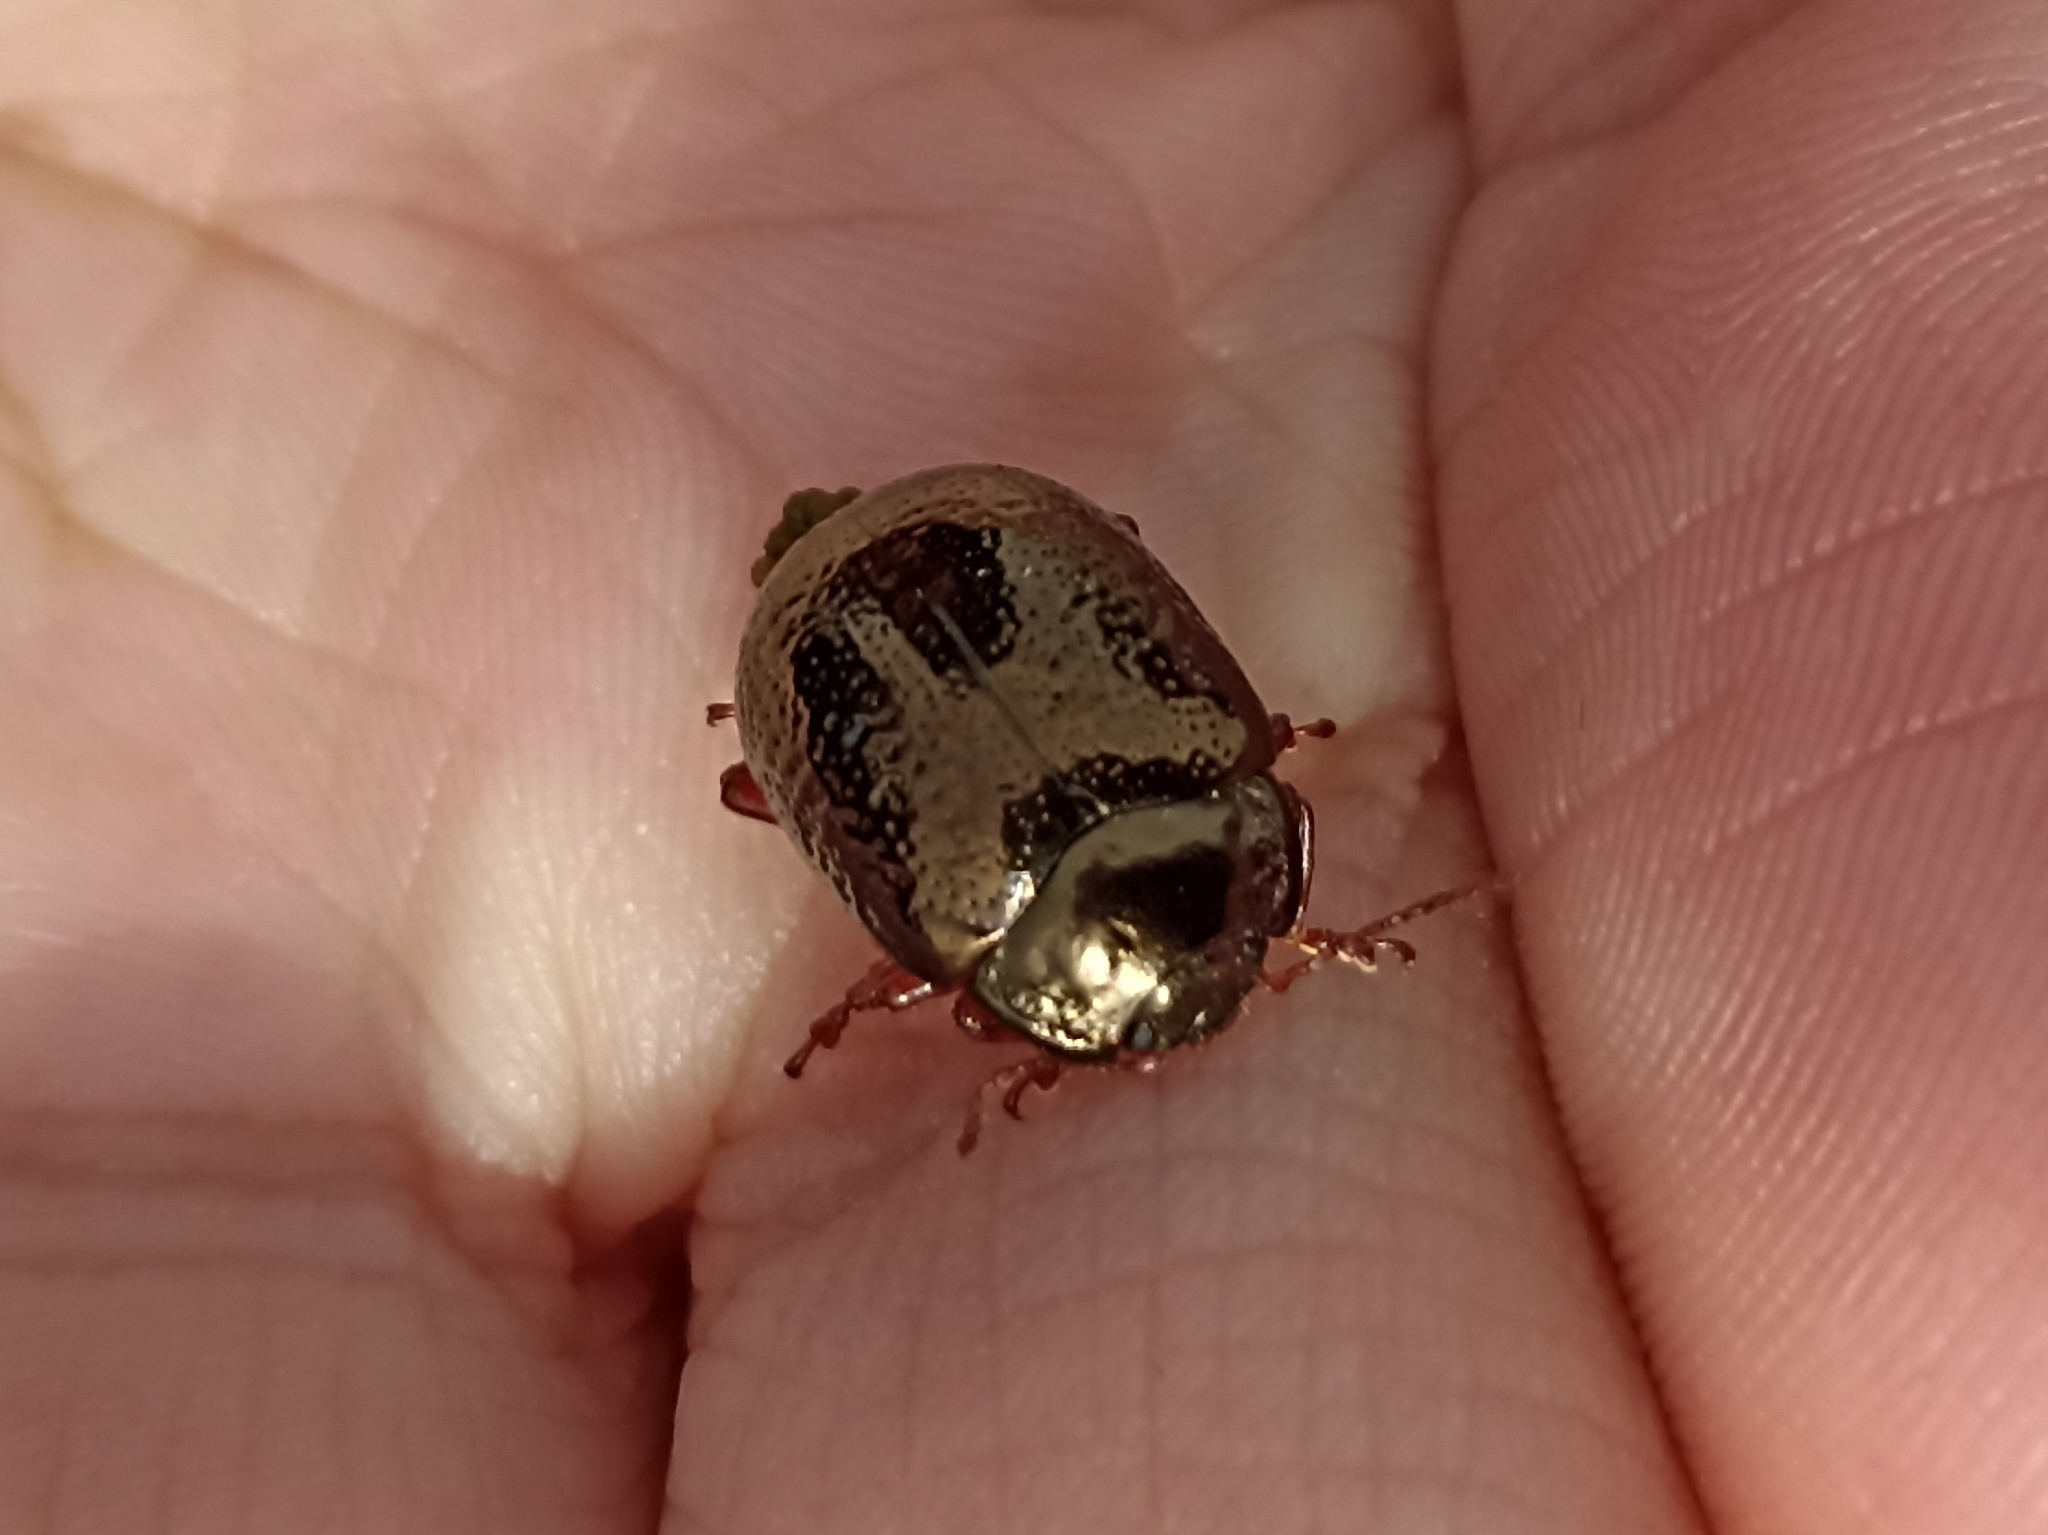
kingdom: Animalia
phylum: Arthropoda
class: Insecta
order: Coleoptera
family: Chrysomelidae
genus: Chrysolina
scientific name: Chrysolina bankii
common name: Leaf beetle
